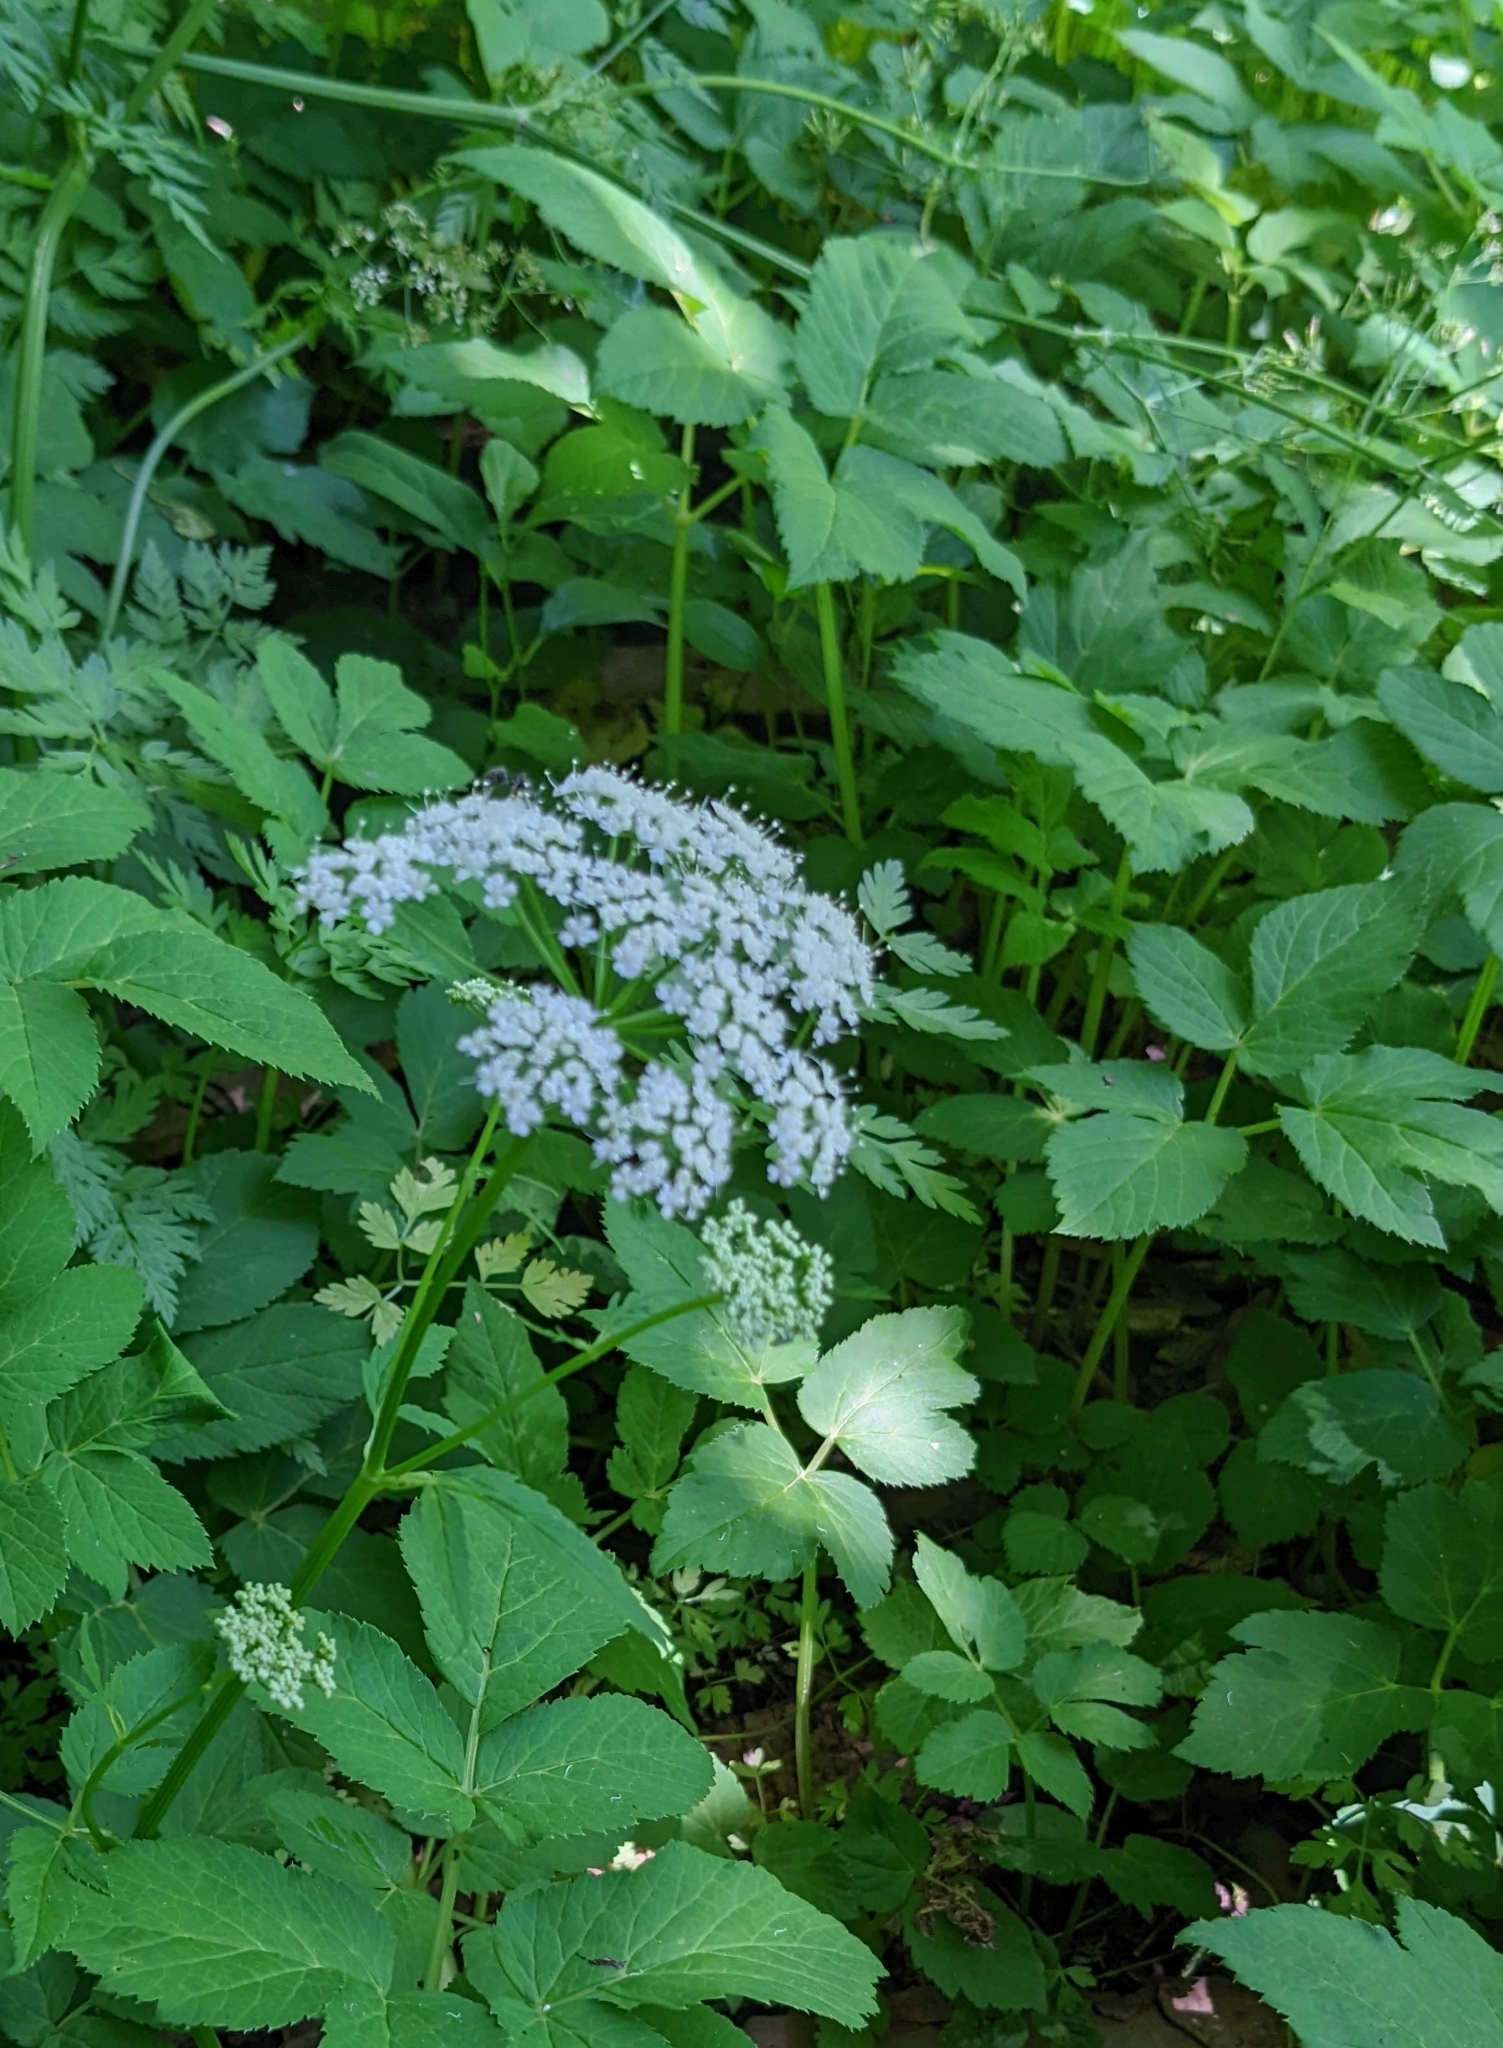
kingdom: Plantae
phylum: Tracheophyta
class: Magnoliopsida
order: Apiales
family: Apiaceae
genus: Aegopodium
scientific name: Aegopodium podagraria
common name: Ground-elder
